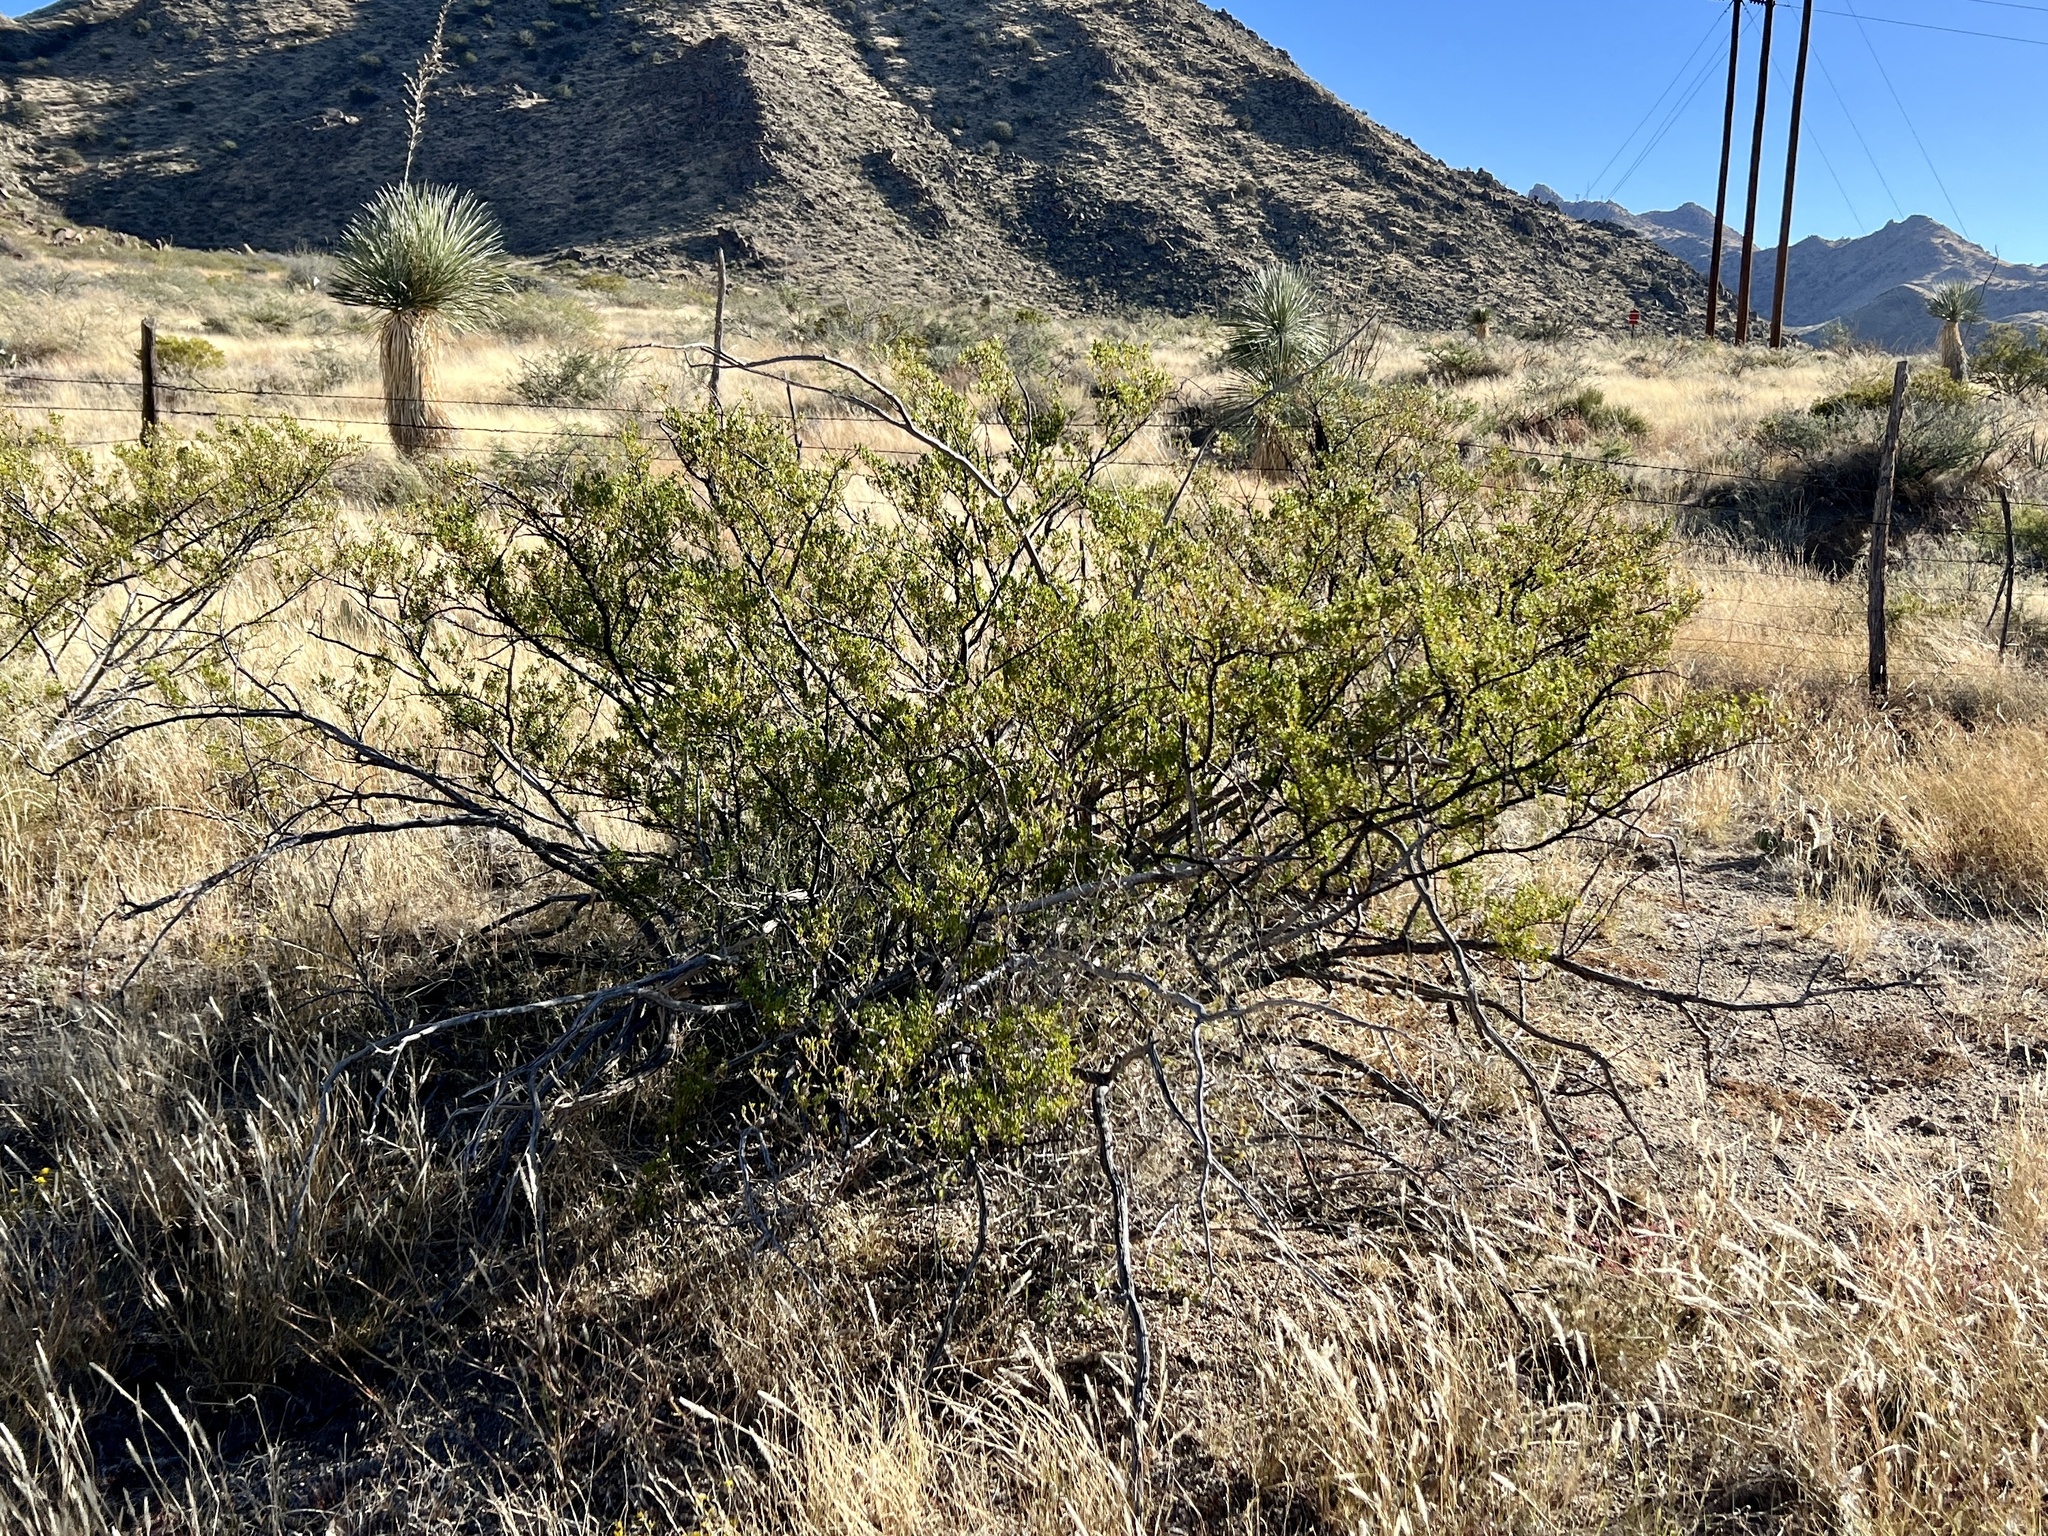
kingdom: Plantae
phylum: Tracheophyta
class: Magnoliopsida
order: Zygophyllales
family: Zygophyllaceae
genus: Larrea
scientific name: Larrea tridentata
